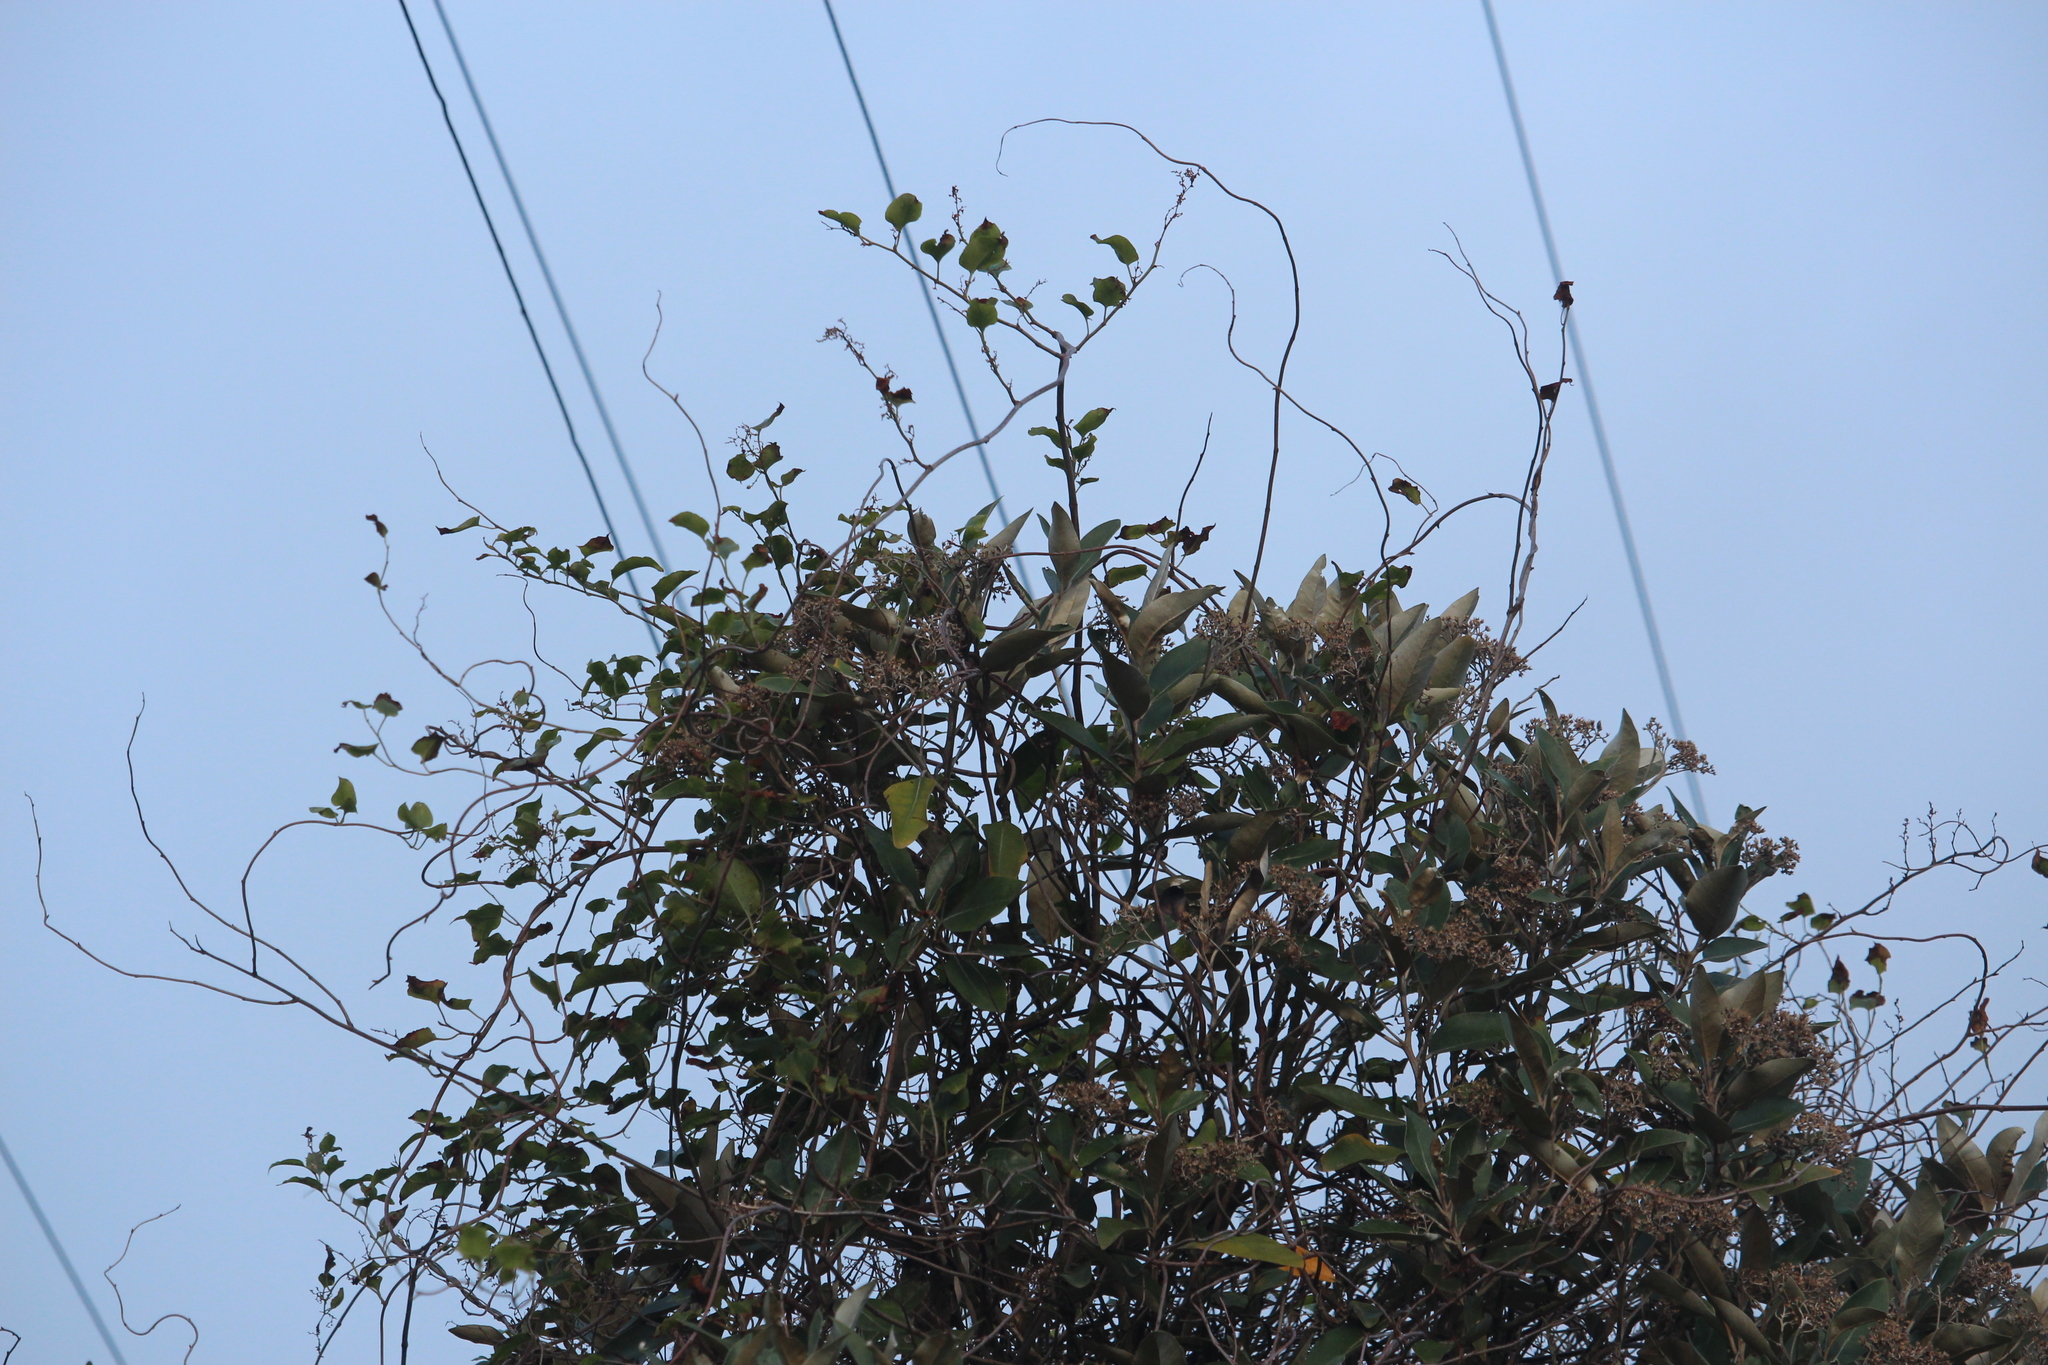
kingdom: Plantae
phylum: Tracheophyta
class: Magnoliopsida
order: Asterales
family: Asteraceae
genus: Olearia
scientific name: Olearia avicenniifolia
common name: Mangrove-leaf daisybush
